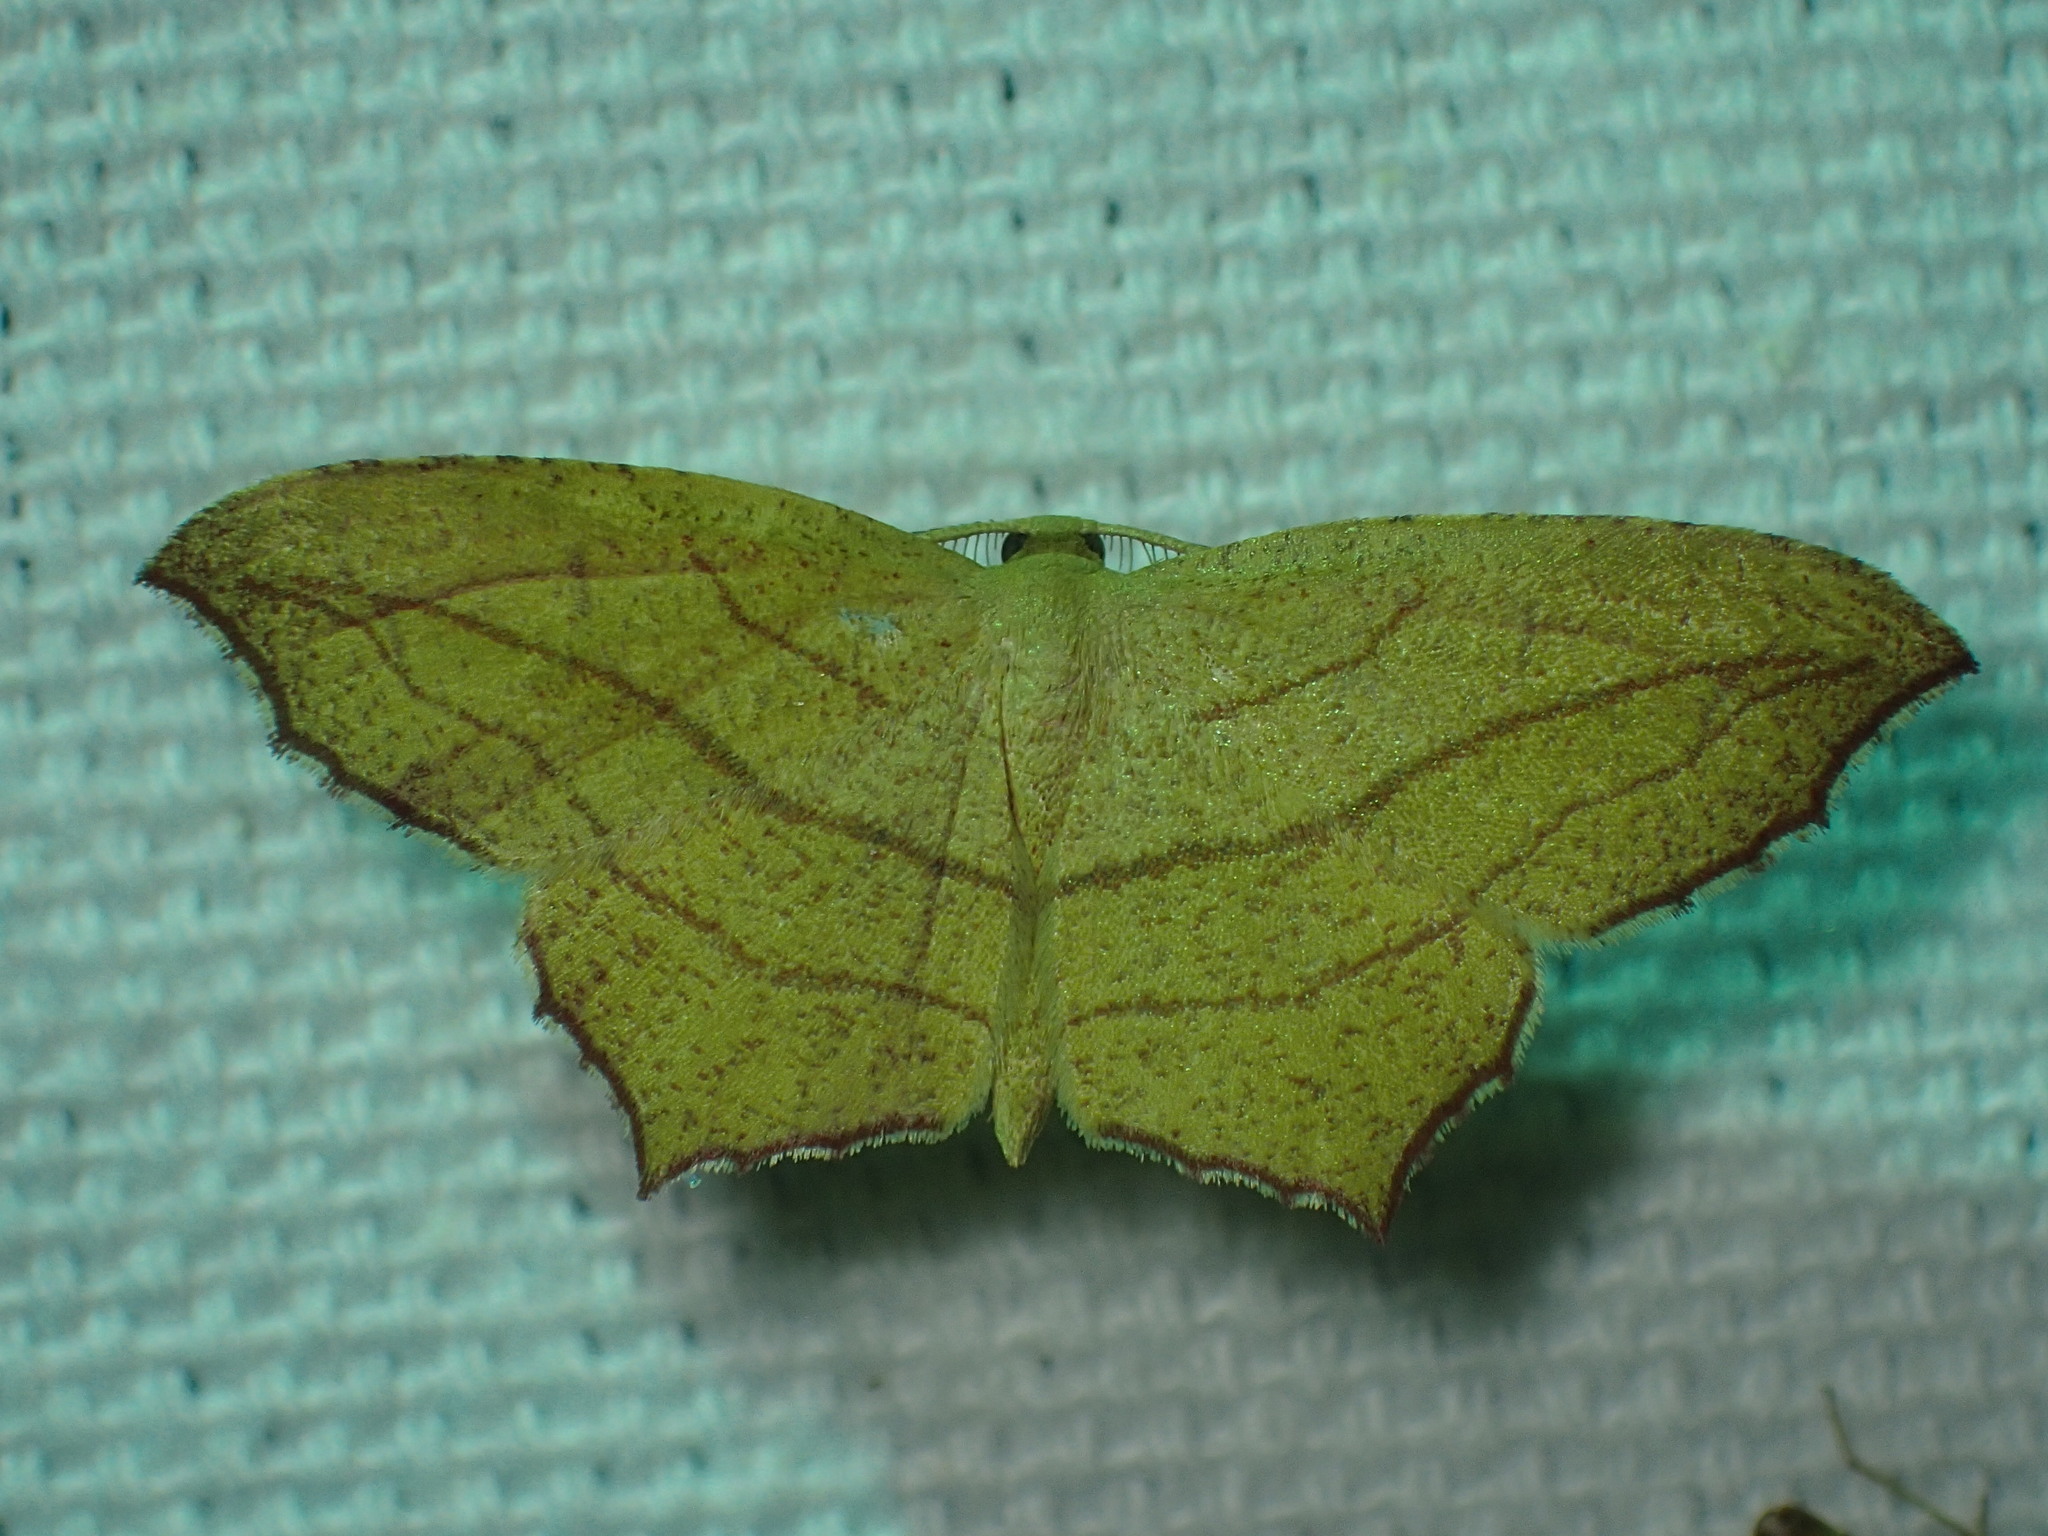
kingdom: Animalia
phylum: Arthropoda
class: Insecta
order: Lepidoptera
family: Geometridae
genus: Timandra
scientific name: Timandra amaturaria
